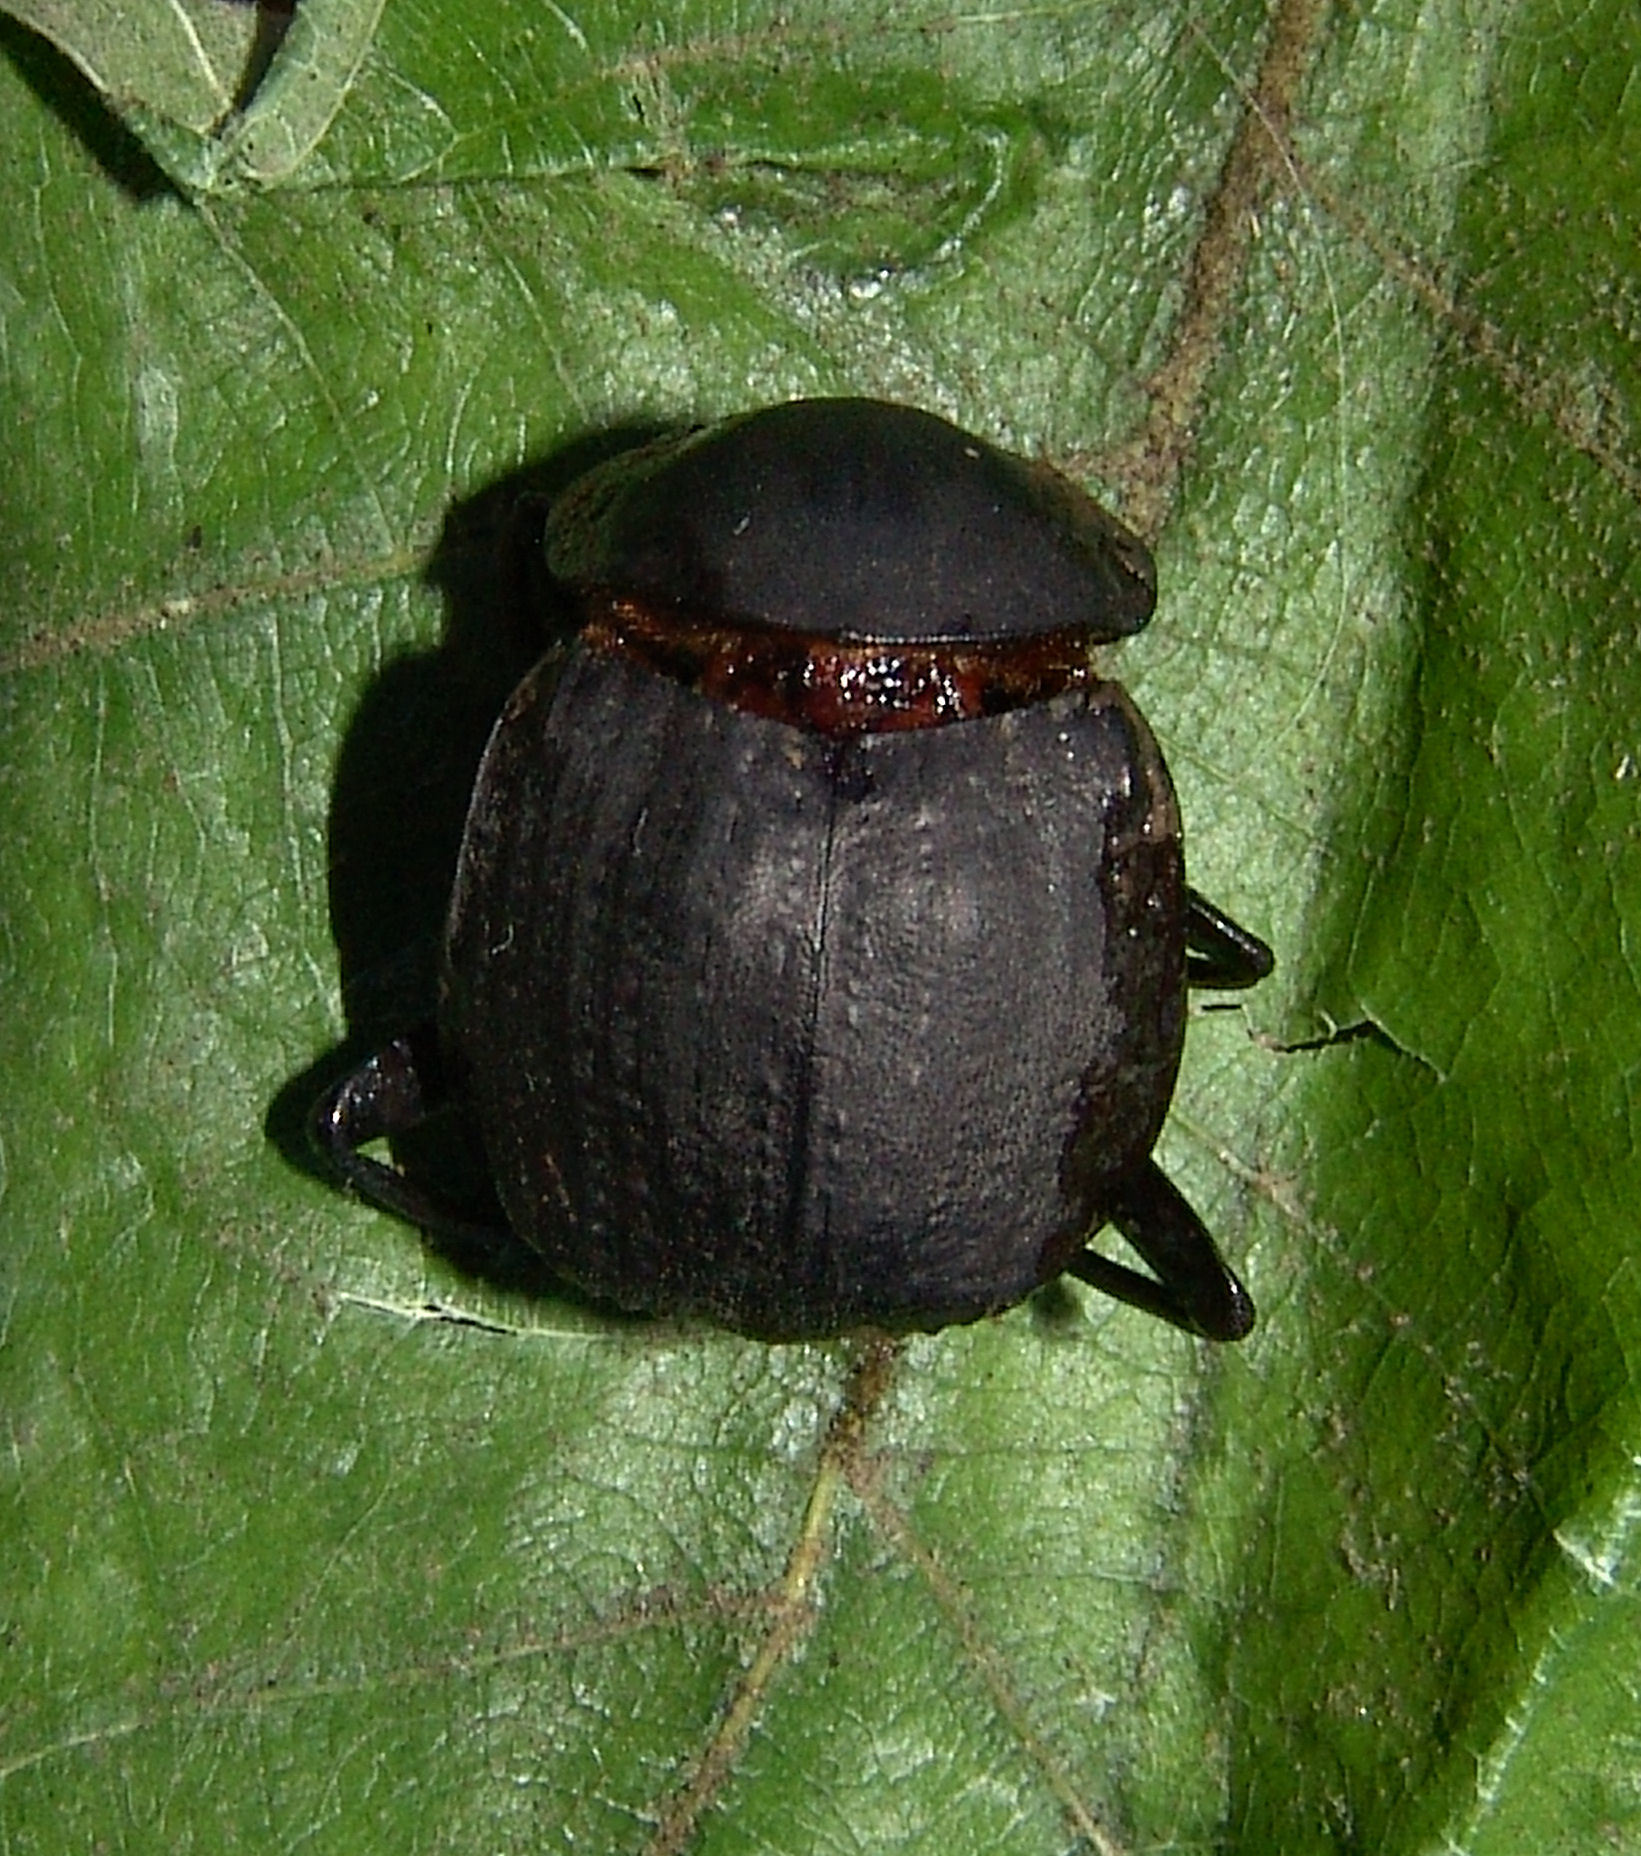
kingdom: Animalia
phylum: Arthropoda
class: Insecta
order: Coleoptera
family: Scarabaeidae
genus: Deltochilum
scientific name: Deltochilum gibbosum
